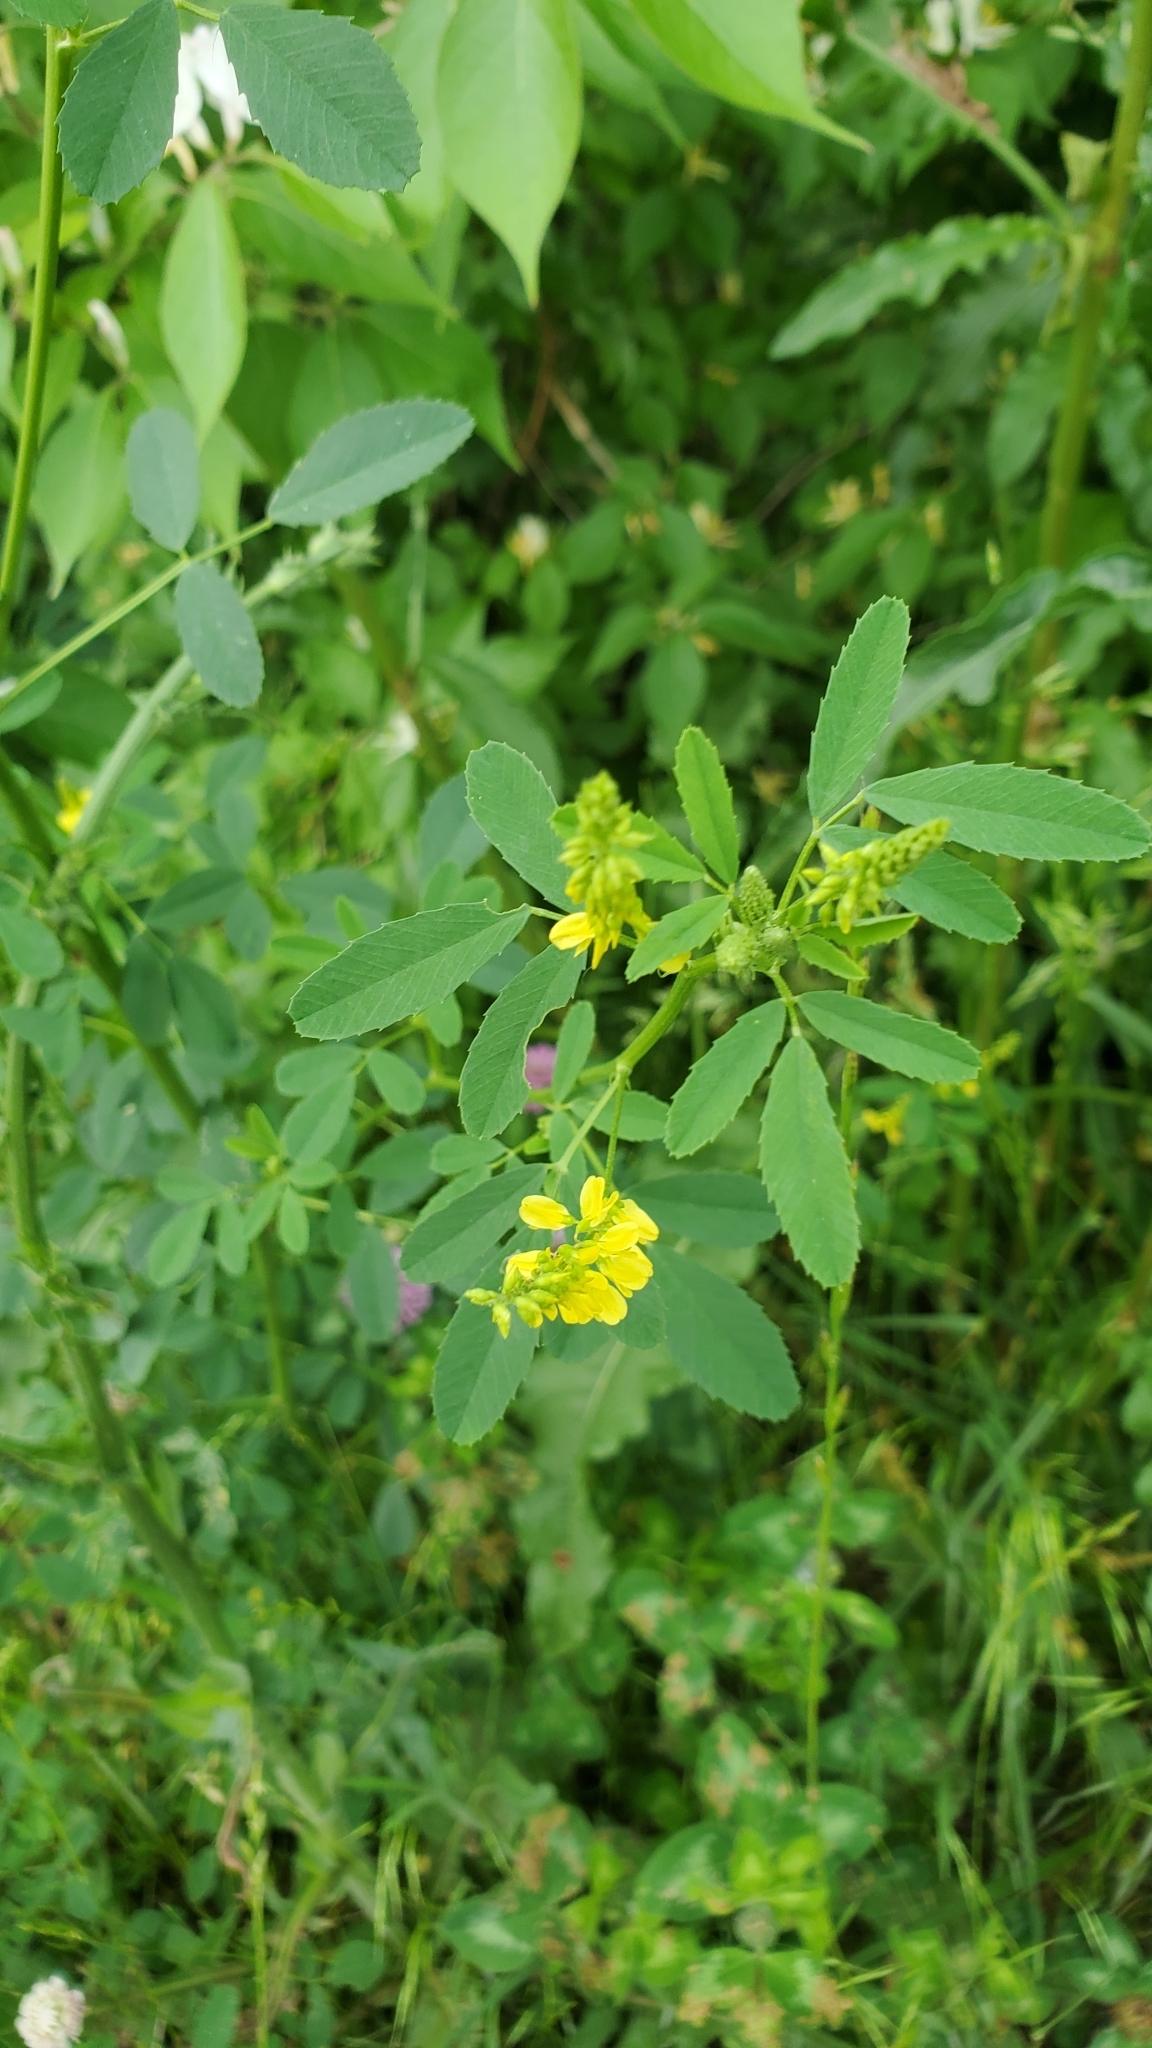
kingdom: Plantae
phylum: Tracheophyta
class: Magnoliopsida
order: Fabales
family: Fabaceae
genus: Melilotus
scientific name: Melilotus officinalis
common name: Sweetclover
